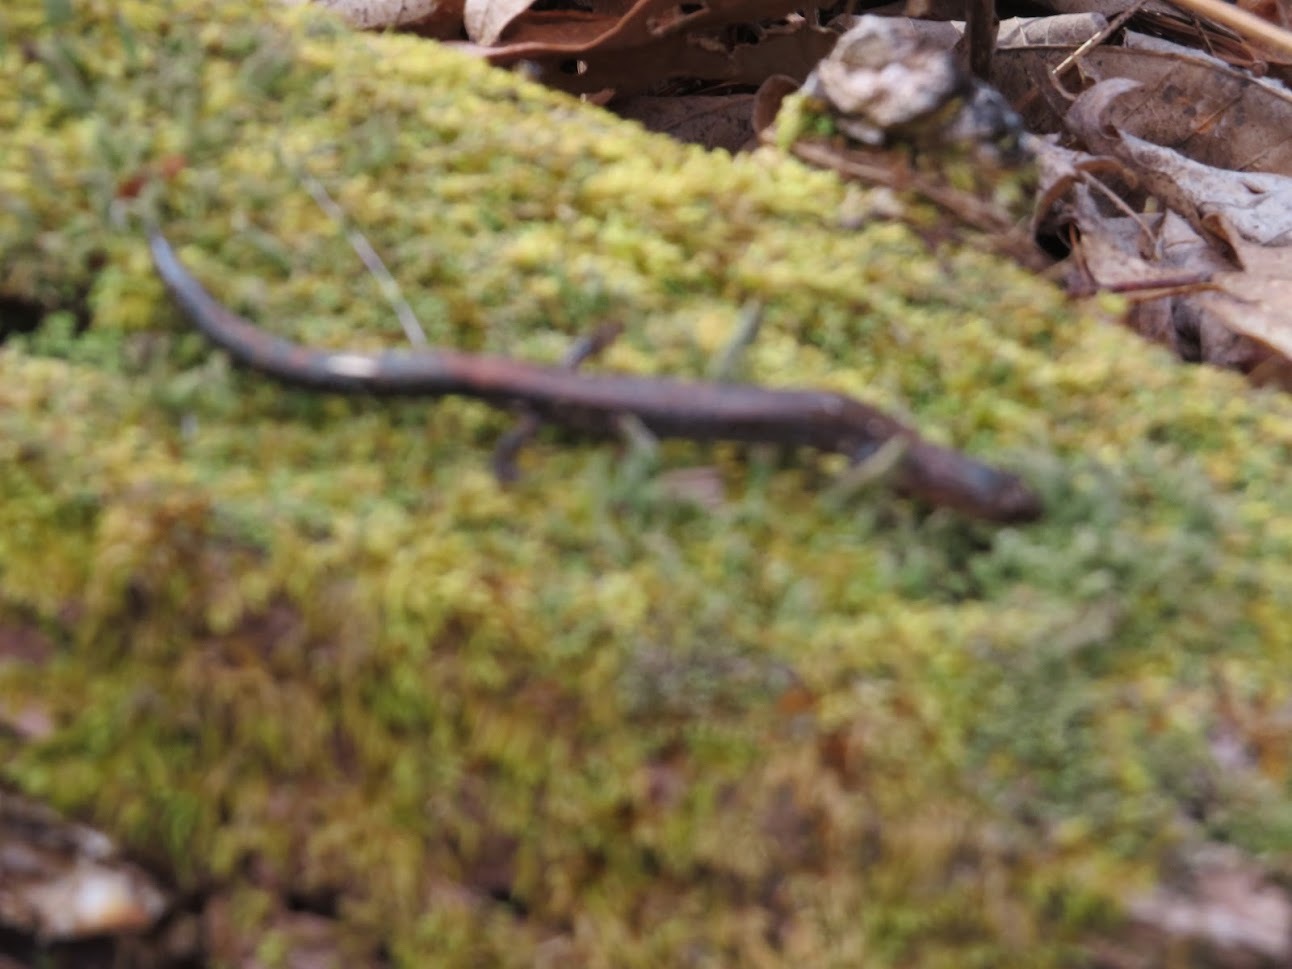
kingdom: Animalia
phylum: Chordata
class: Amphibia
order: Caudata
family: Plethodontidae
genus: Plethodon
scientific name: Plethodon cinereus
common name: Redback salamander
